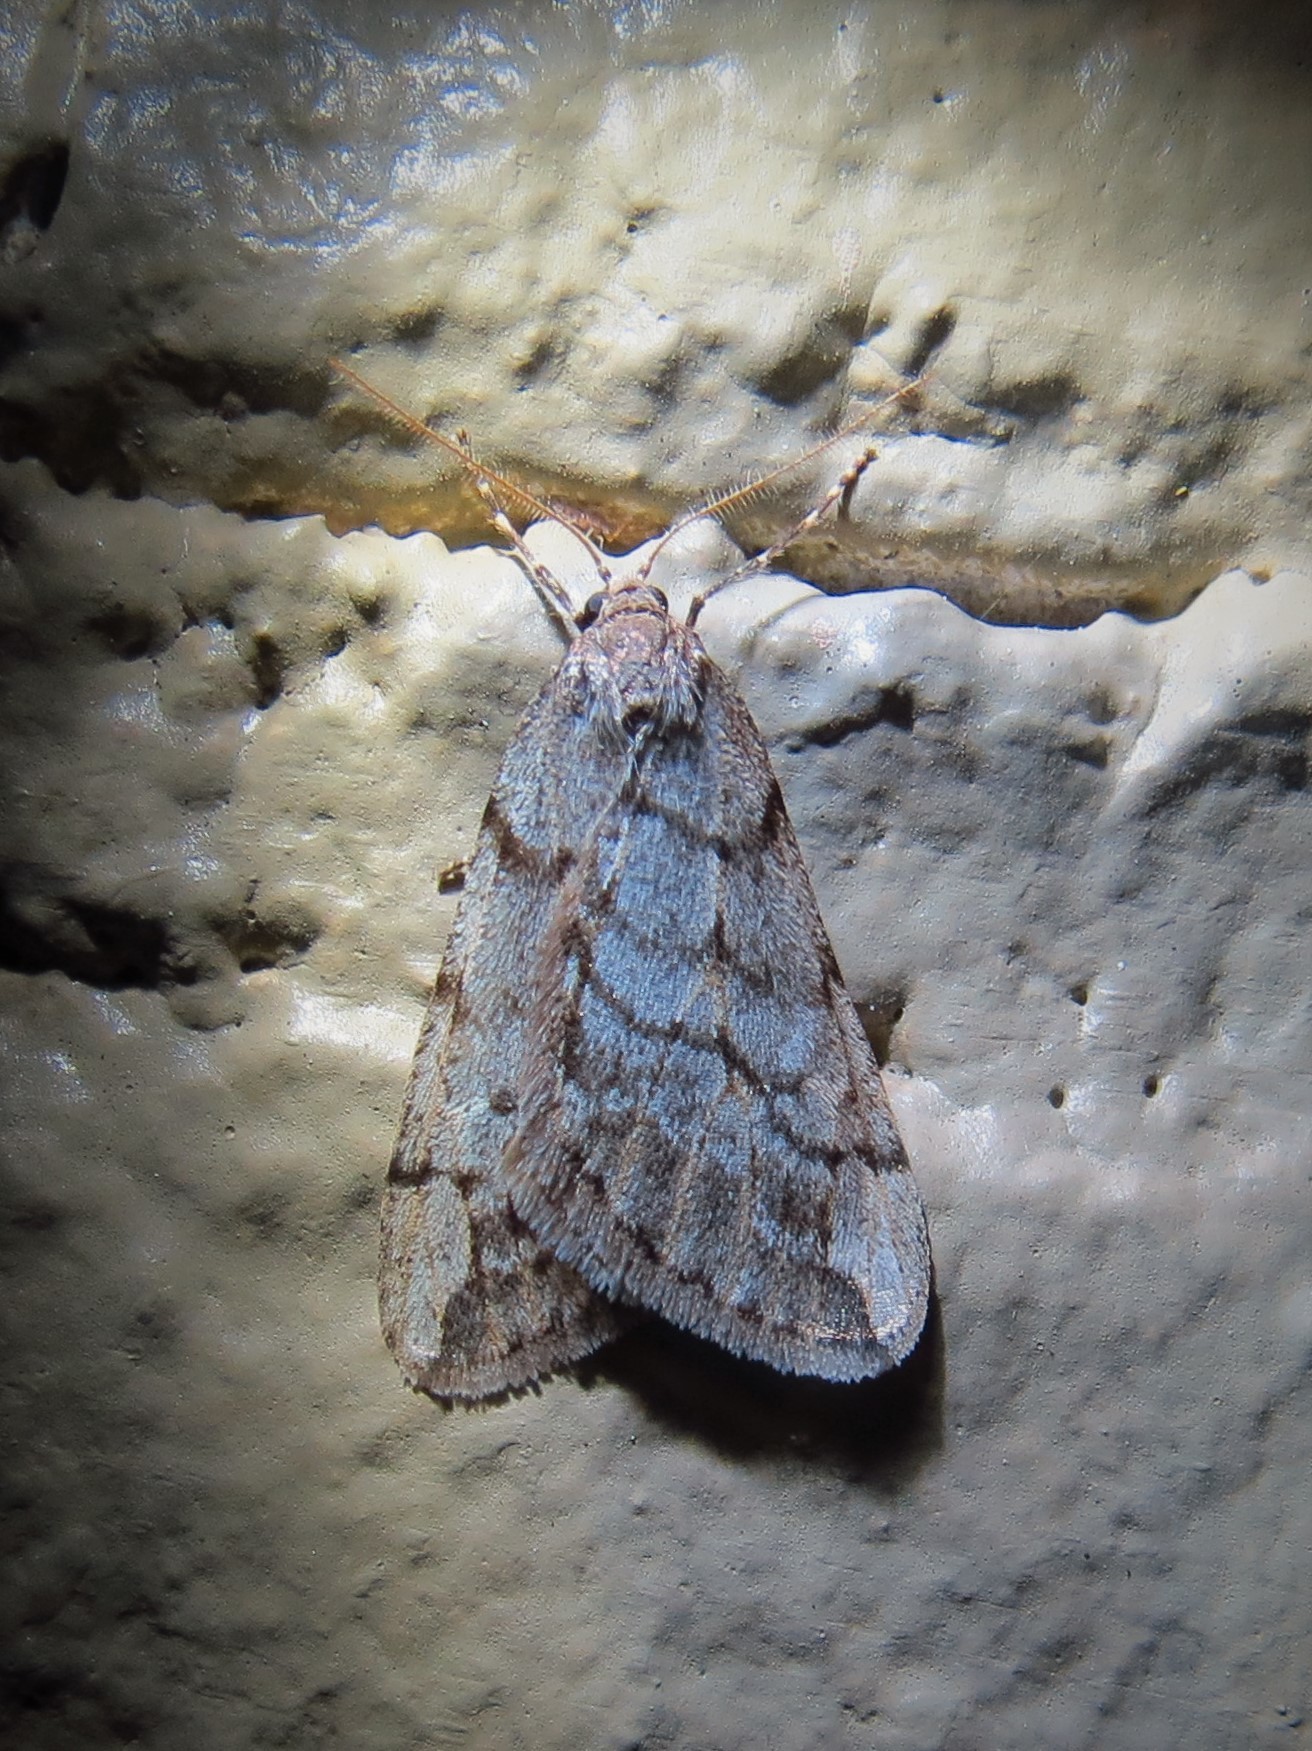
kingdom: Animalia
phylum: Arthropoda
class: Insecta
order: Lepidoptera
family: Geometridae
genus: Paleacrita
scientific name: Paleacrita vernata
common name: Spring cankerworm
